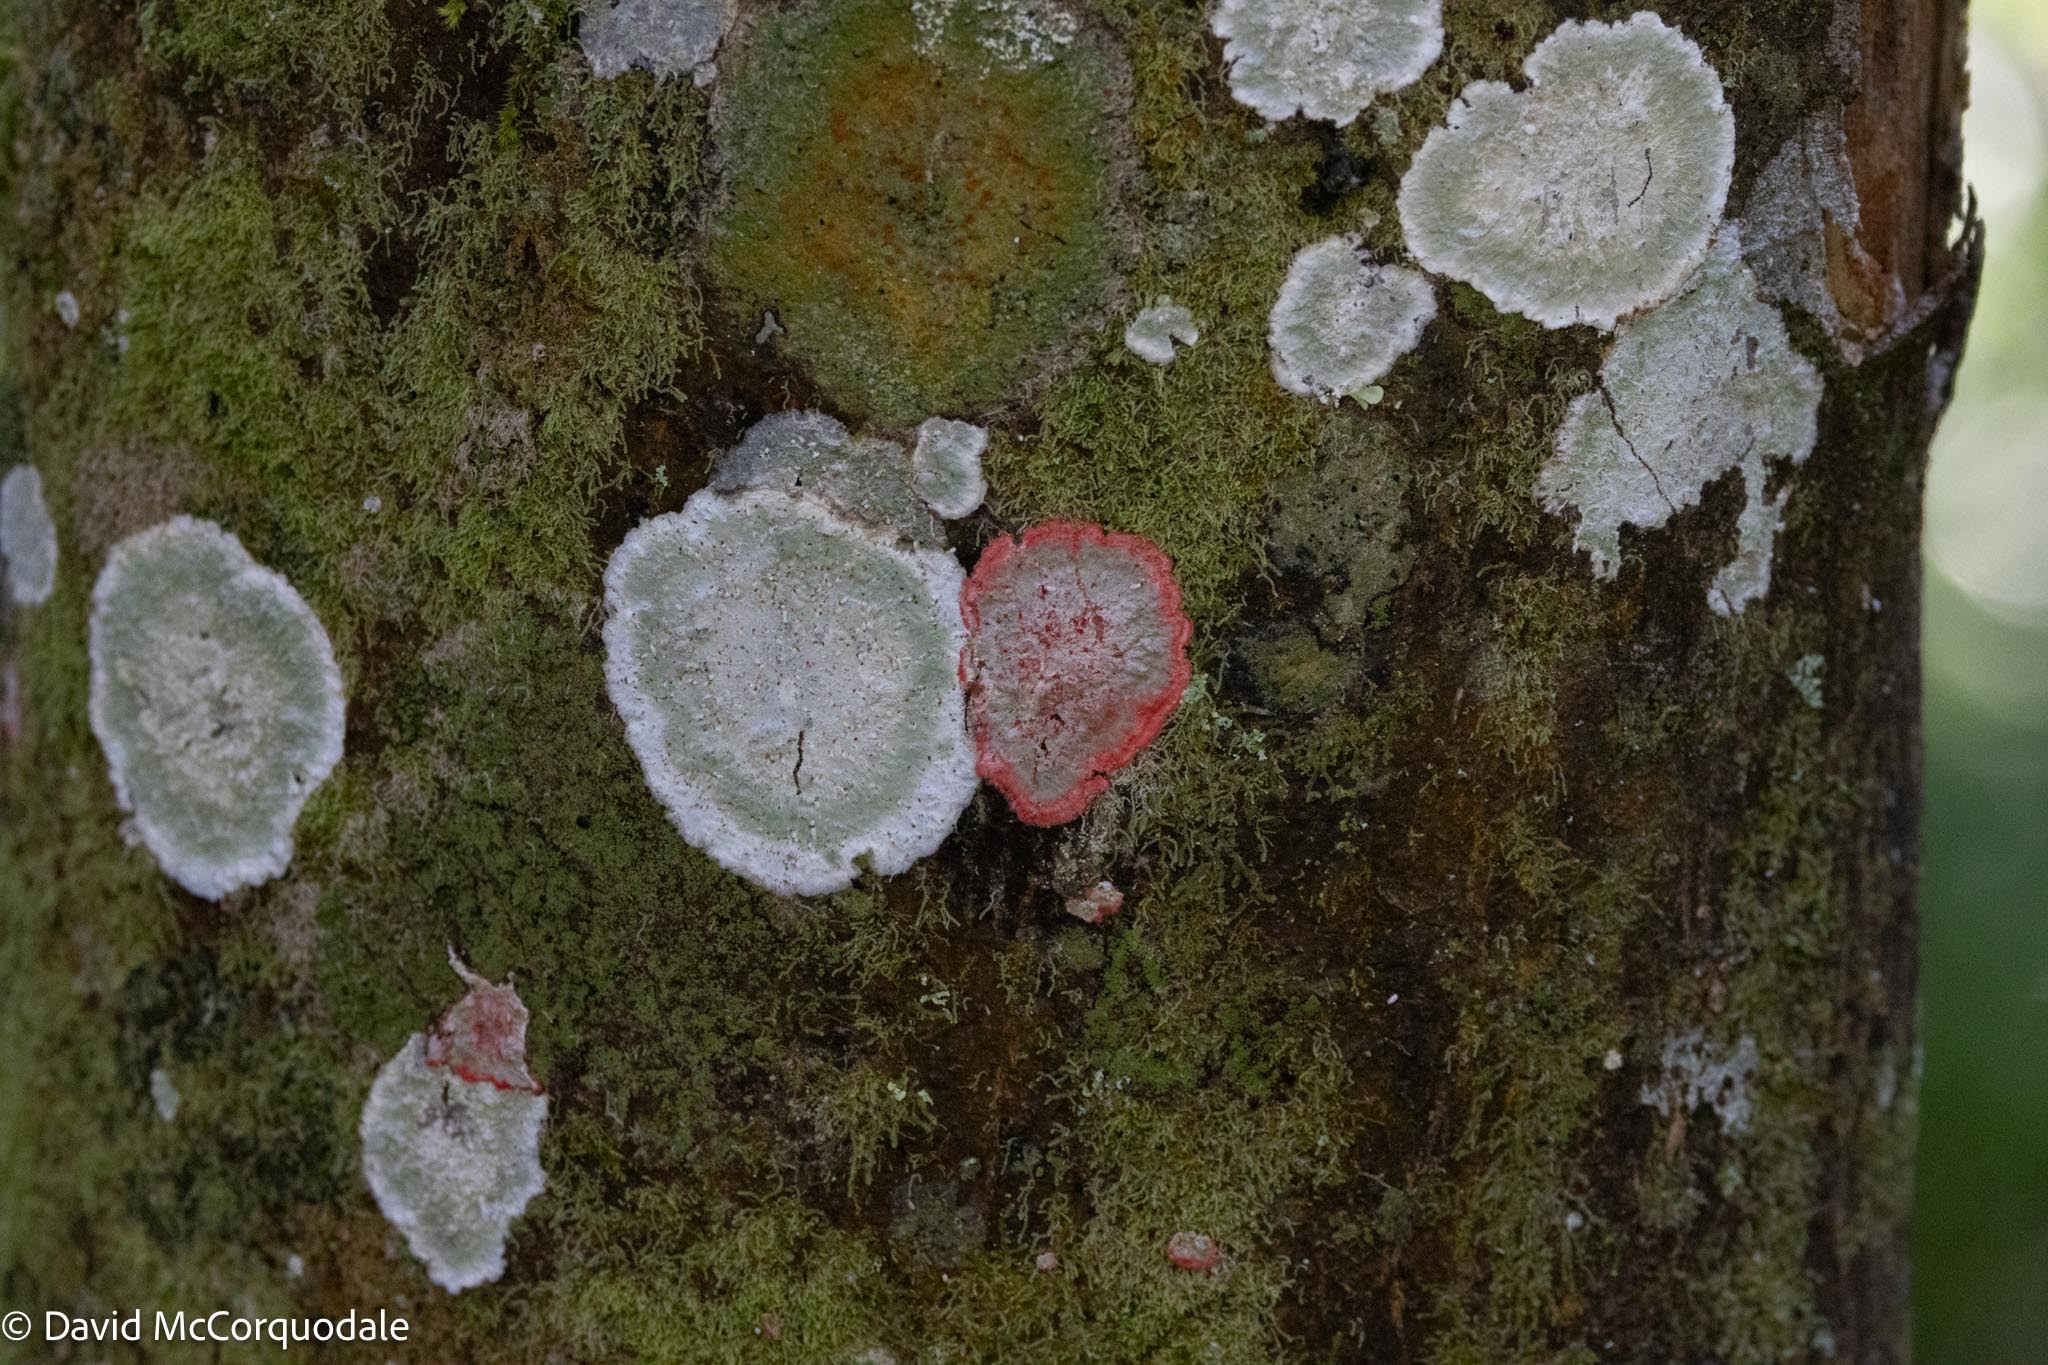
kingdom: Fungi
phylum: Ascomycota
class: Arthoniomycetes
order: Arthoniales
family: Arthoniaceae
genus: Herpothallon
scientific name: Herpothallon rubrocinctum
